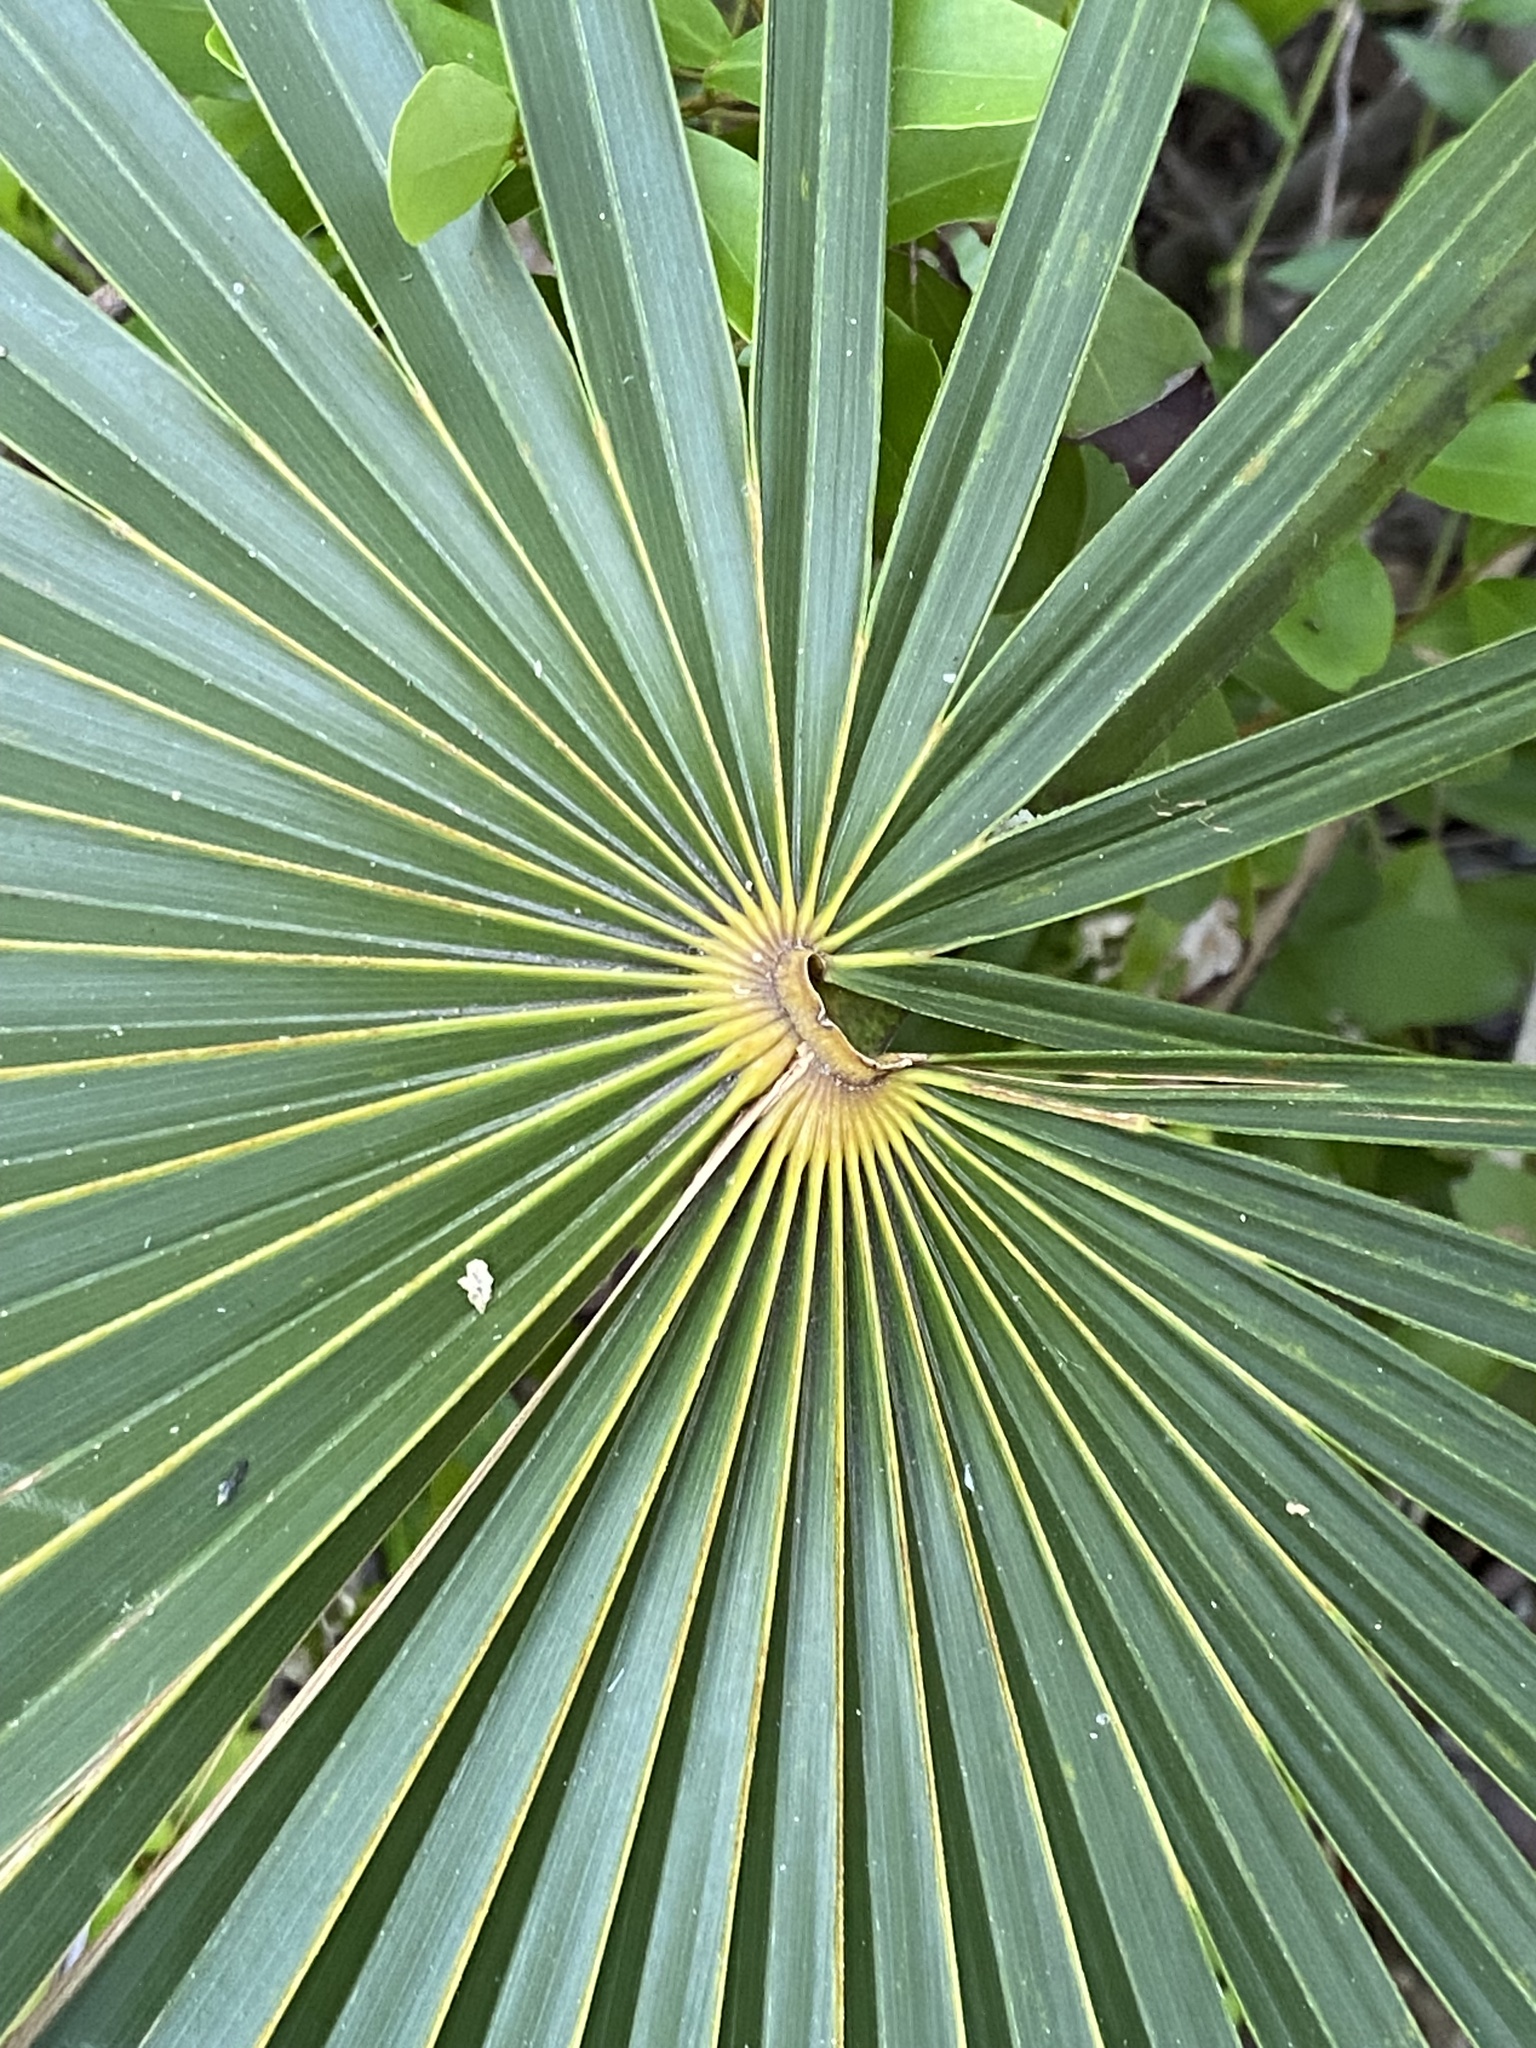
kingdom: Plantae
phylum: Tracheophyta
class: Liliopsida
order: Arecales
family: Arecaceae
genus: Coccothrinax
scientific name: Coccothrinax argentata
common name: Florida silver palm
